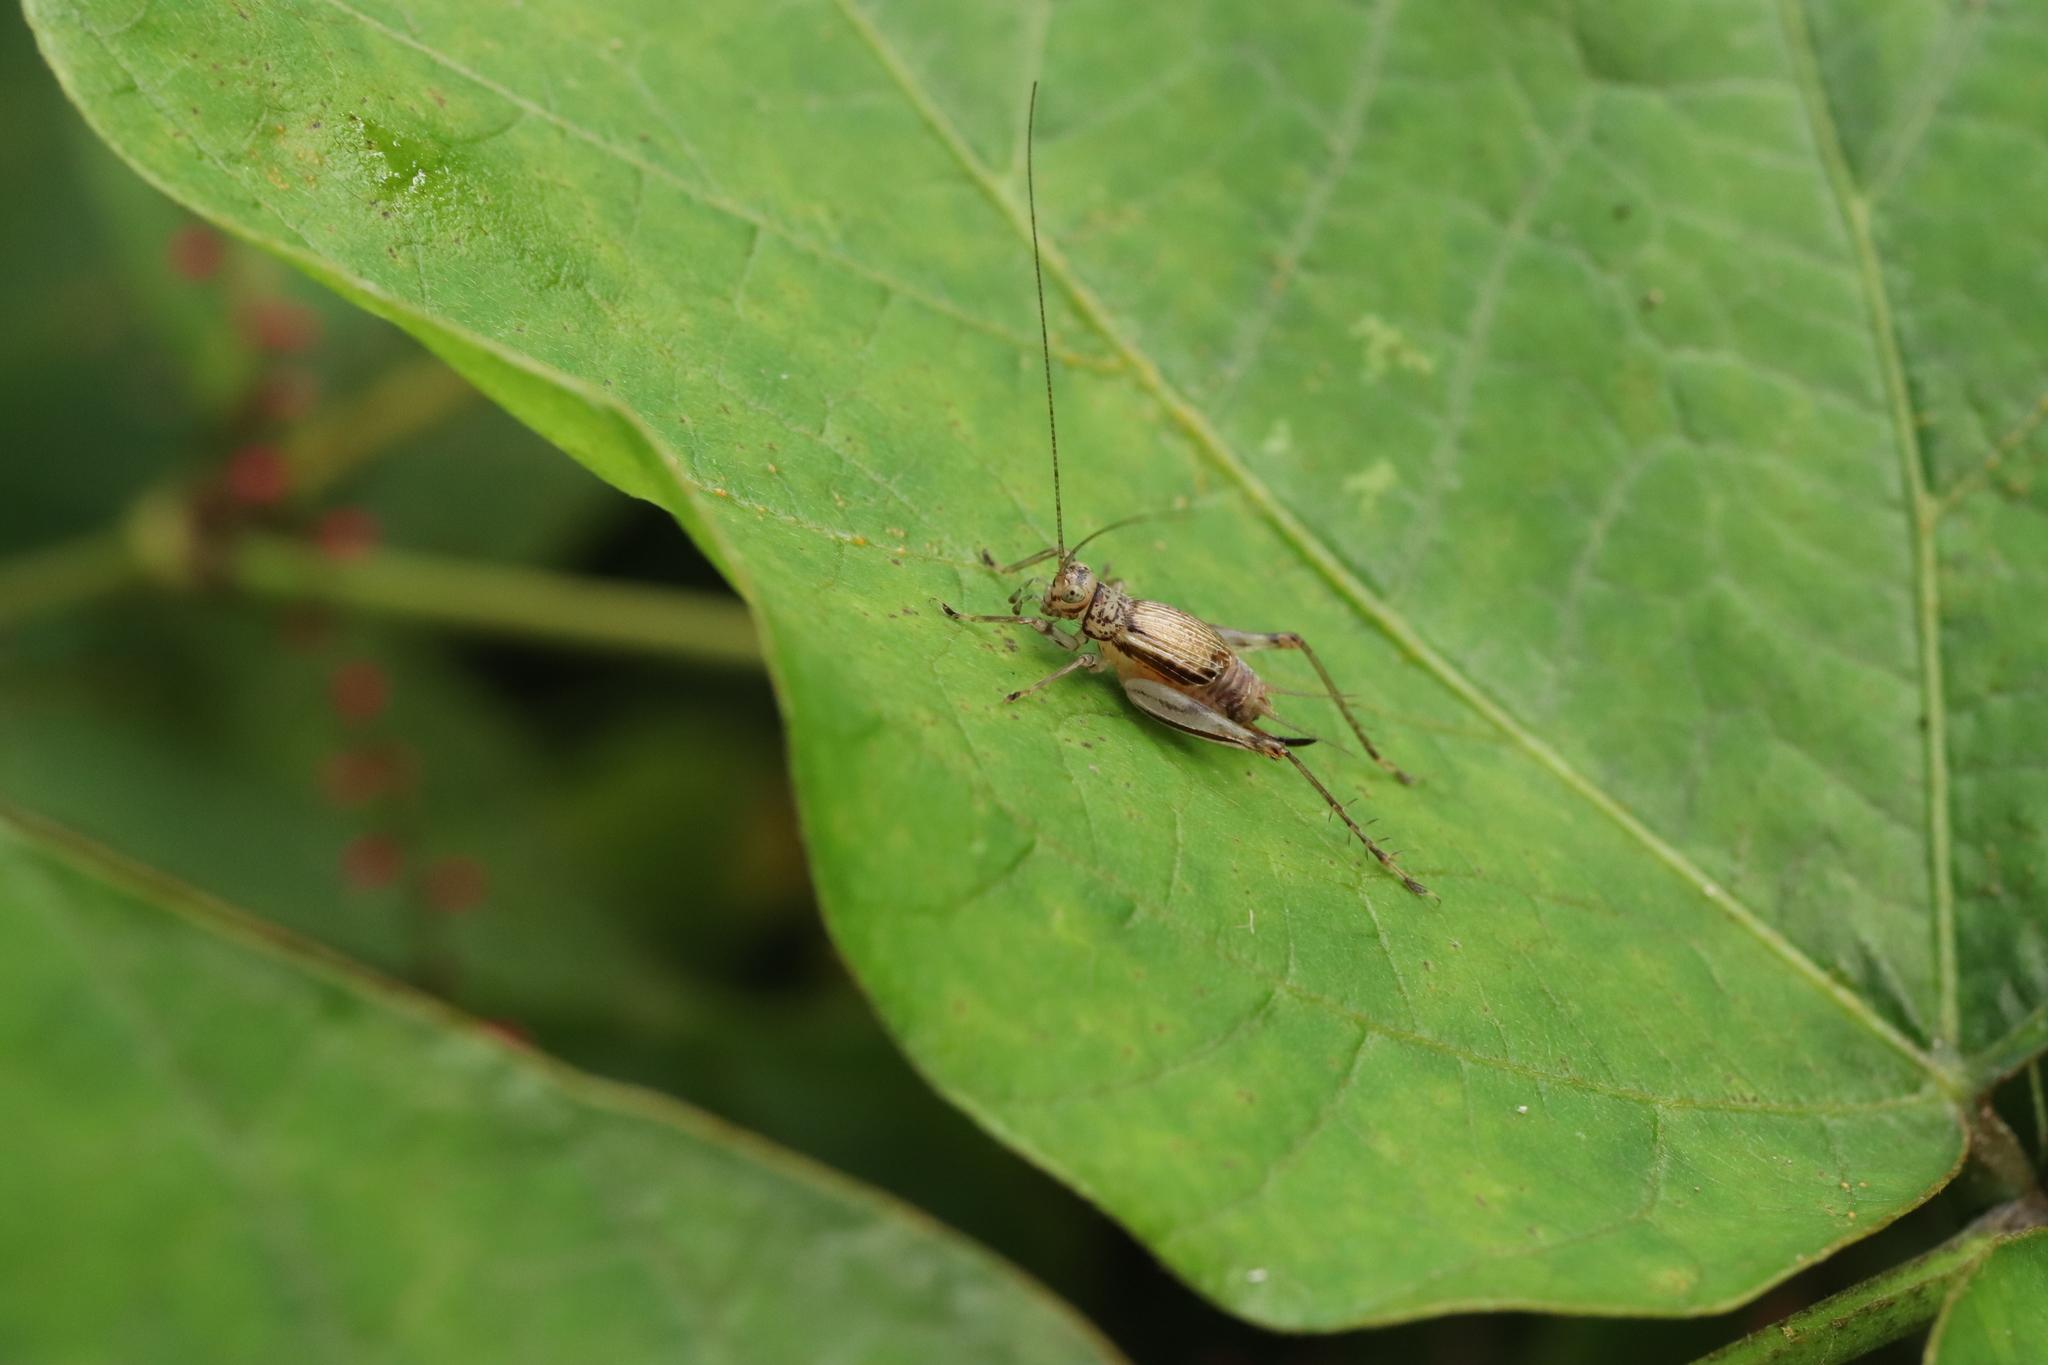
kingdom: Animalia
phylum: Arthropoda
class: Insecta
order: Orthoptera
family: Trigonidiidae
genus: Svistella
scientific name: Svistella bifasciata
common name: Gold bell
